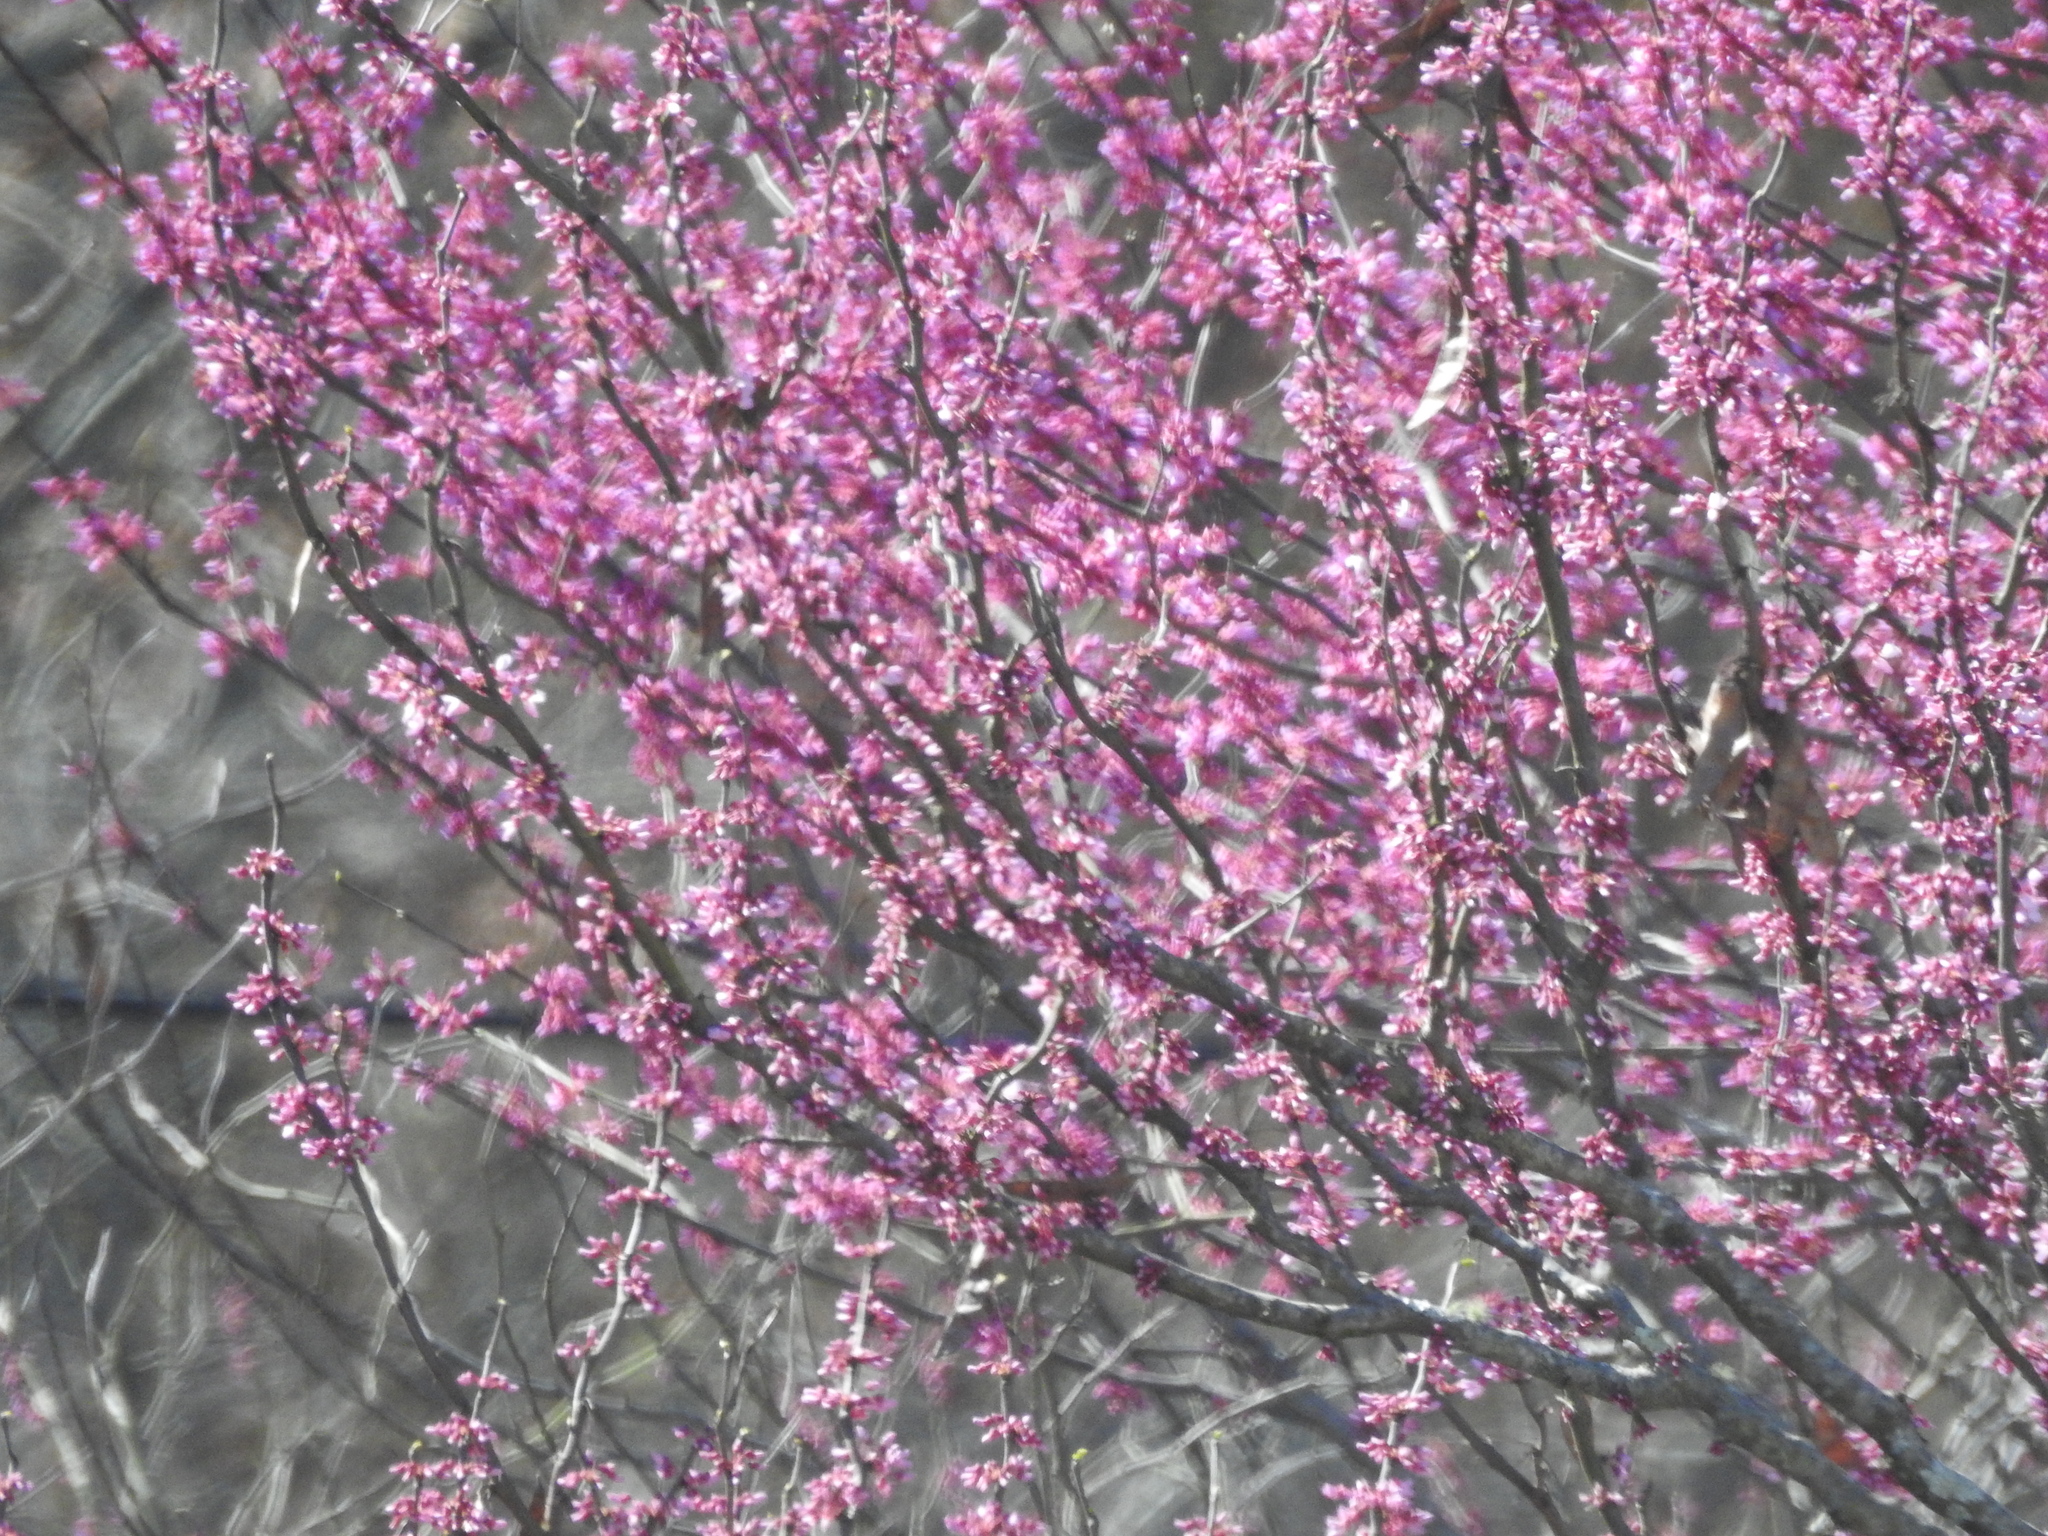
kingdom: Plantae
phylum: Tracheophyta
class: Magnoliopsida
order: Fabales
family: Fabaceae
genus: Cercis
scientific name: Cercis canadensis
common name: Eastern redbud
